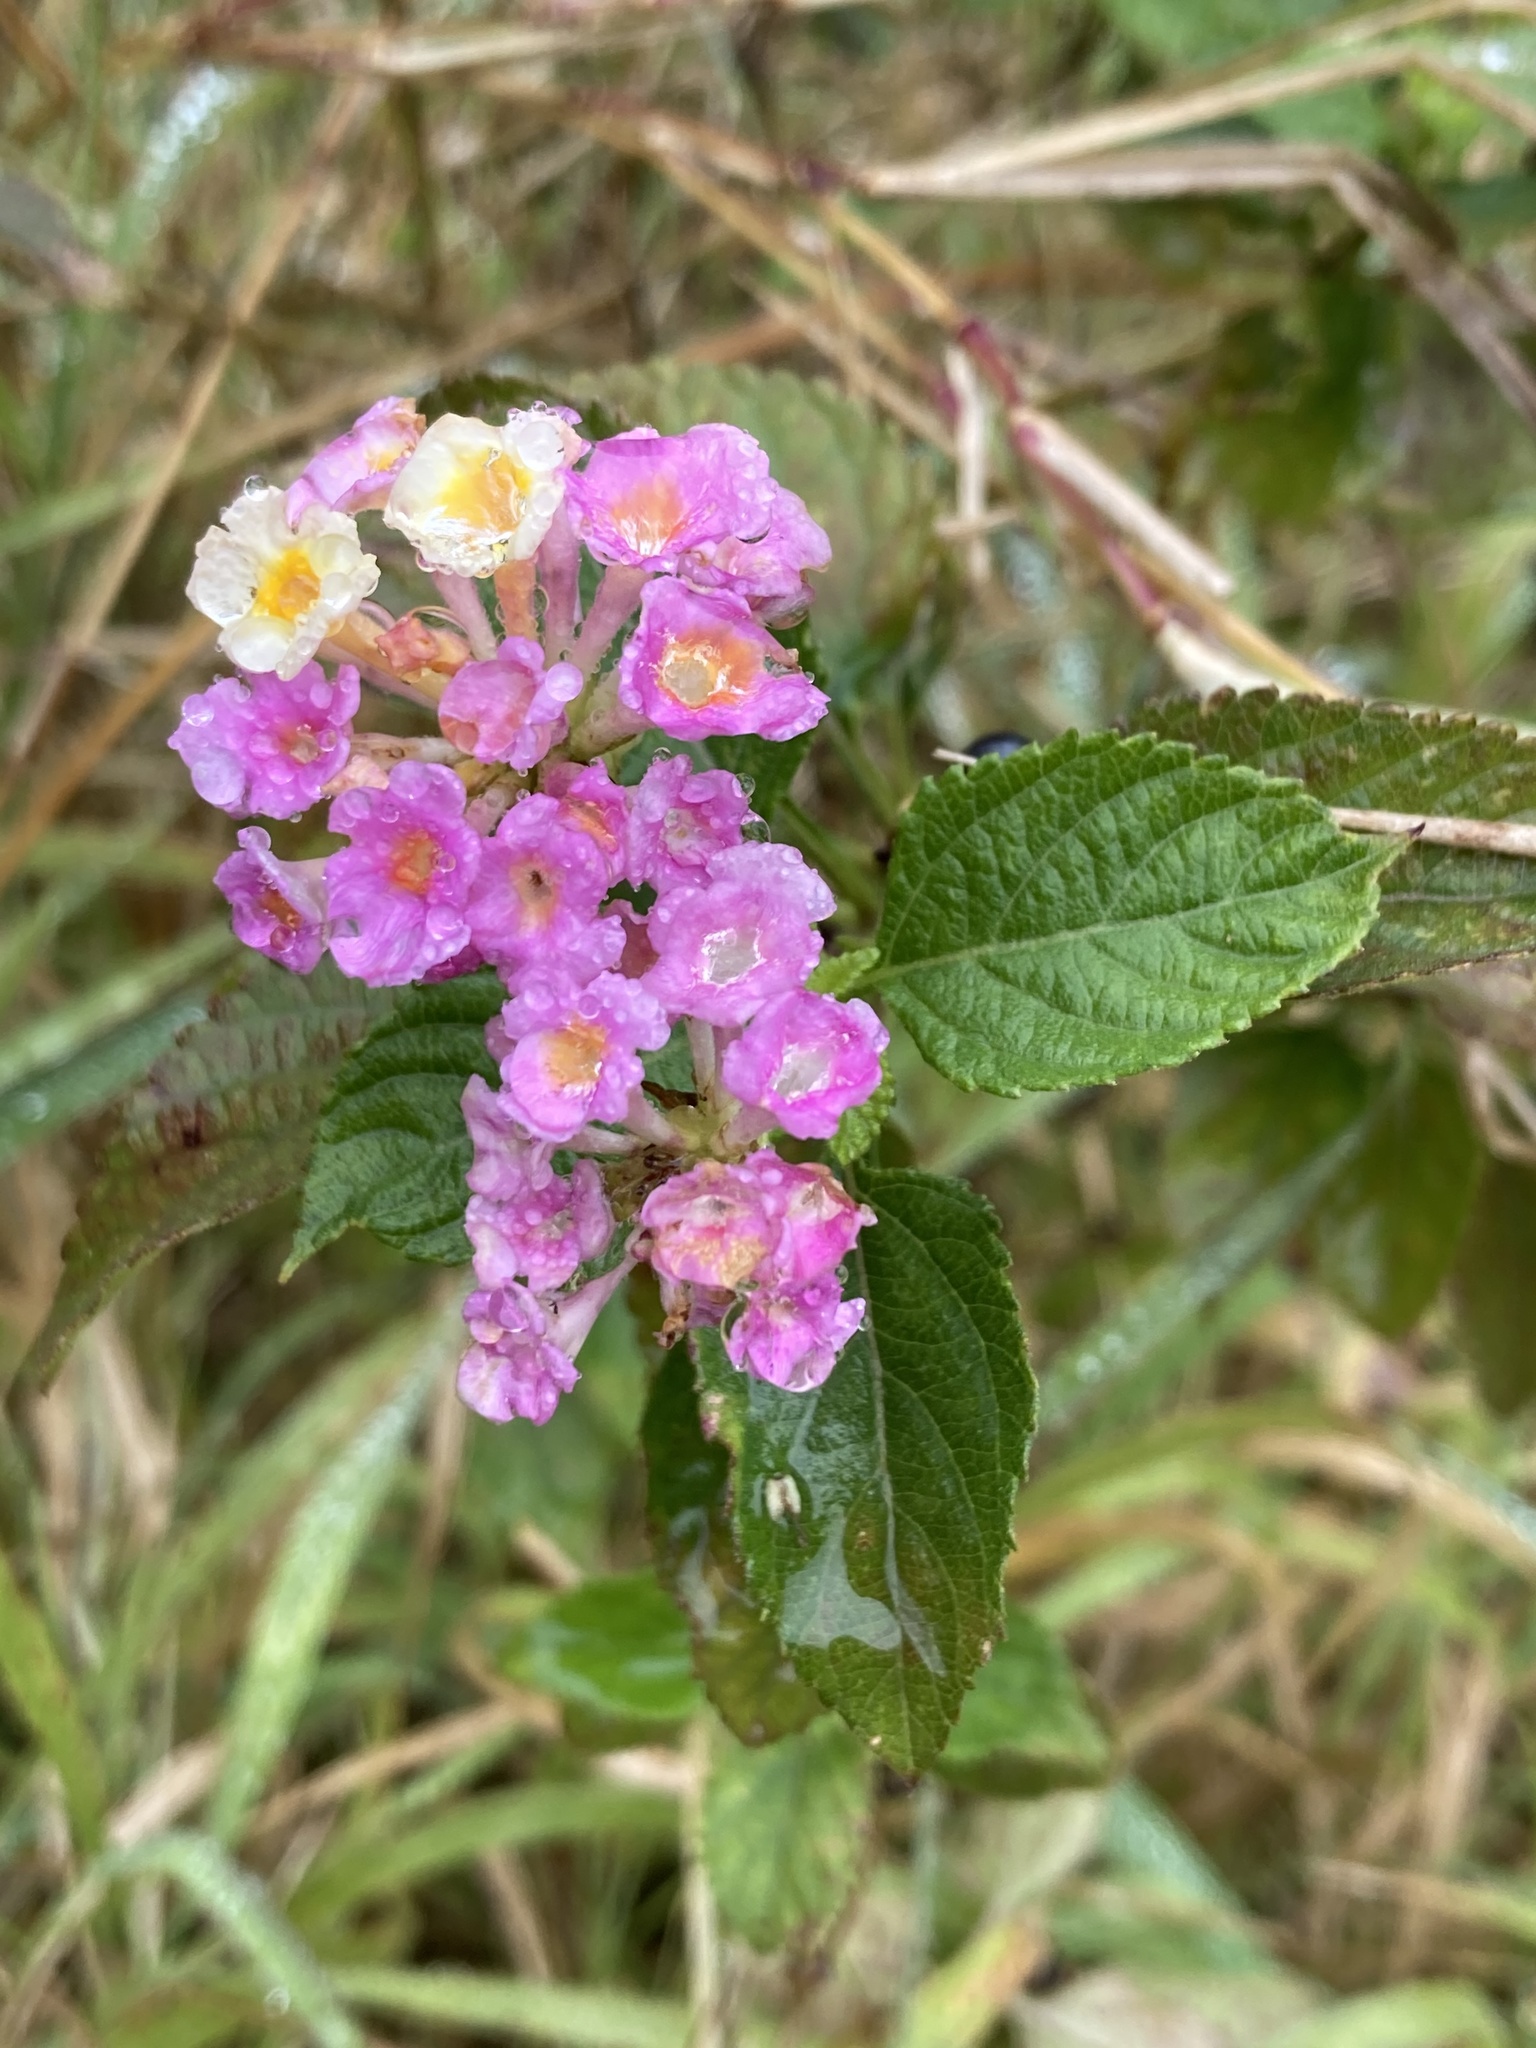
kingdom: Plantae
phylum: Tracheophyta
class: Magnoliopsida
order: Lamiales
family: Verbenaceae
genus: Lantana
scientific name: Lantana strigocamara
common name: Lantana
